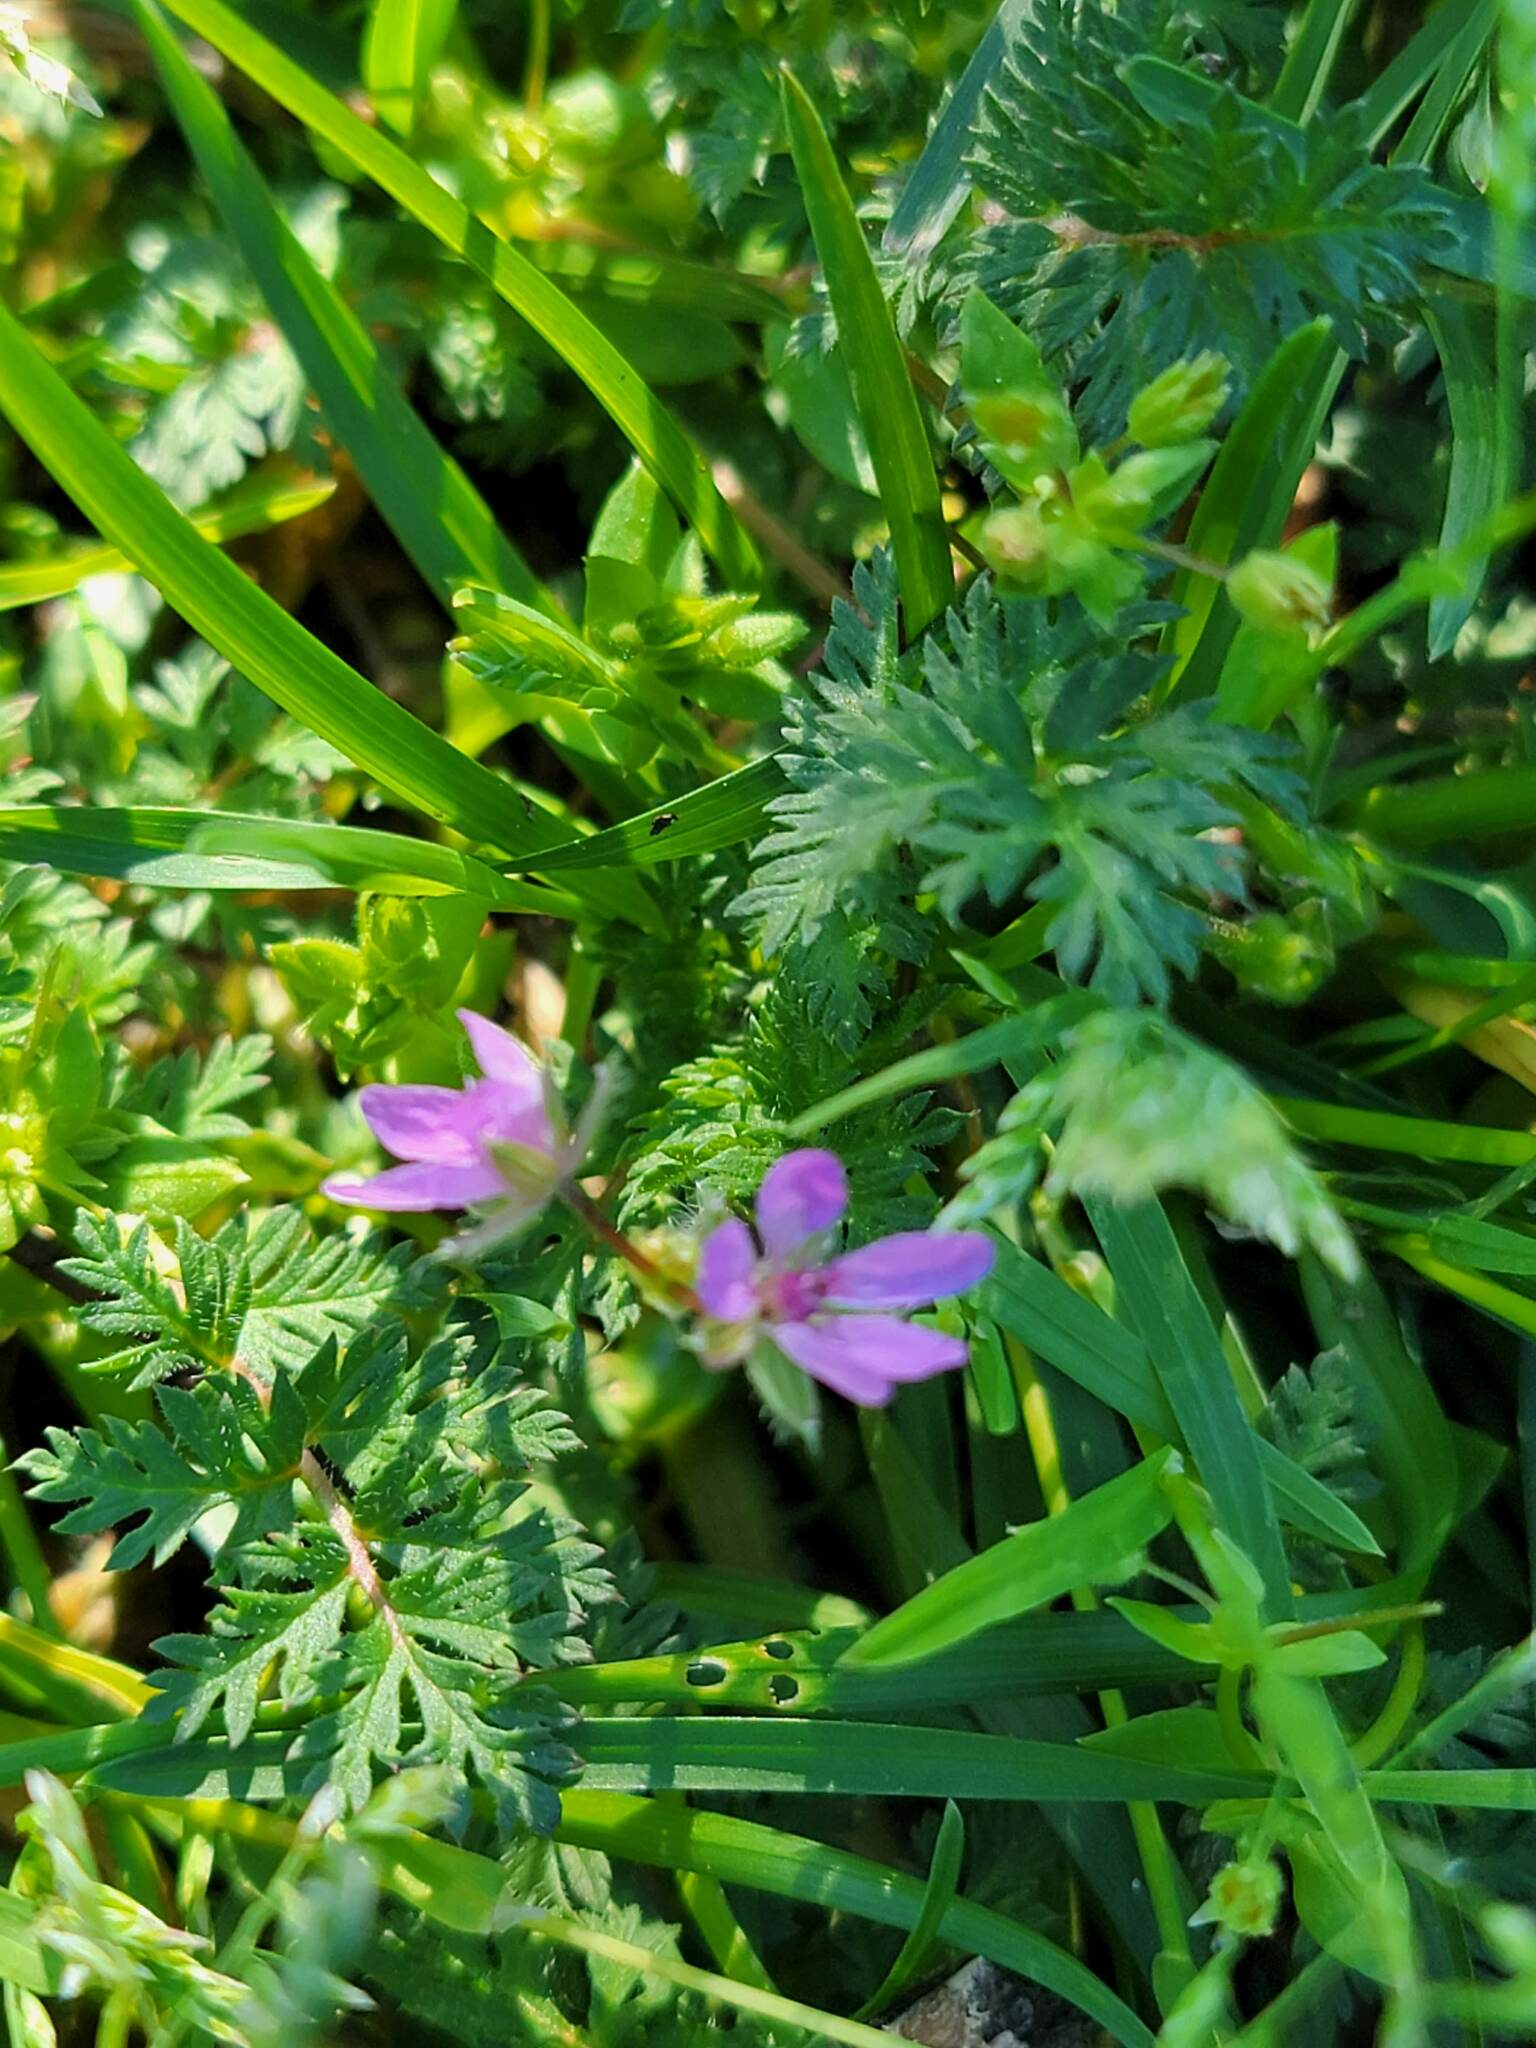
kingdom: Plantae
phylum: Tracheophyta
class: Magnoliopsida
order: Geraniales
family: Geraniaceae
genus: Erodium
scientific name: Erodium cicutarium
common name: Common stork's-bill
